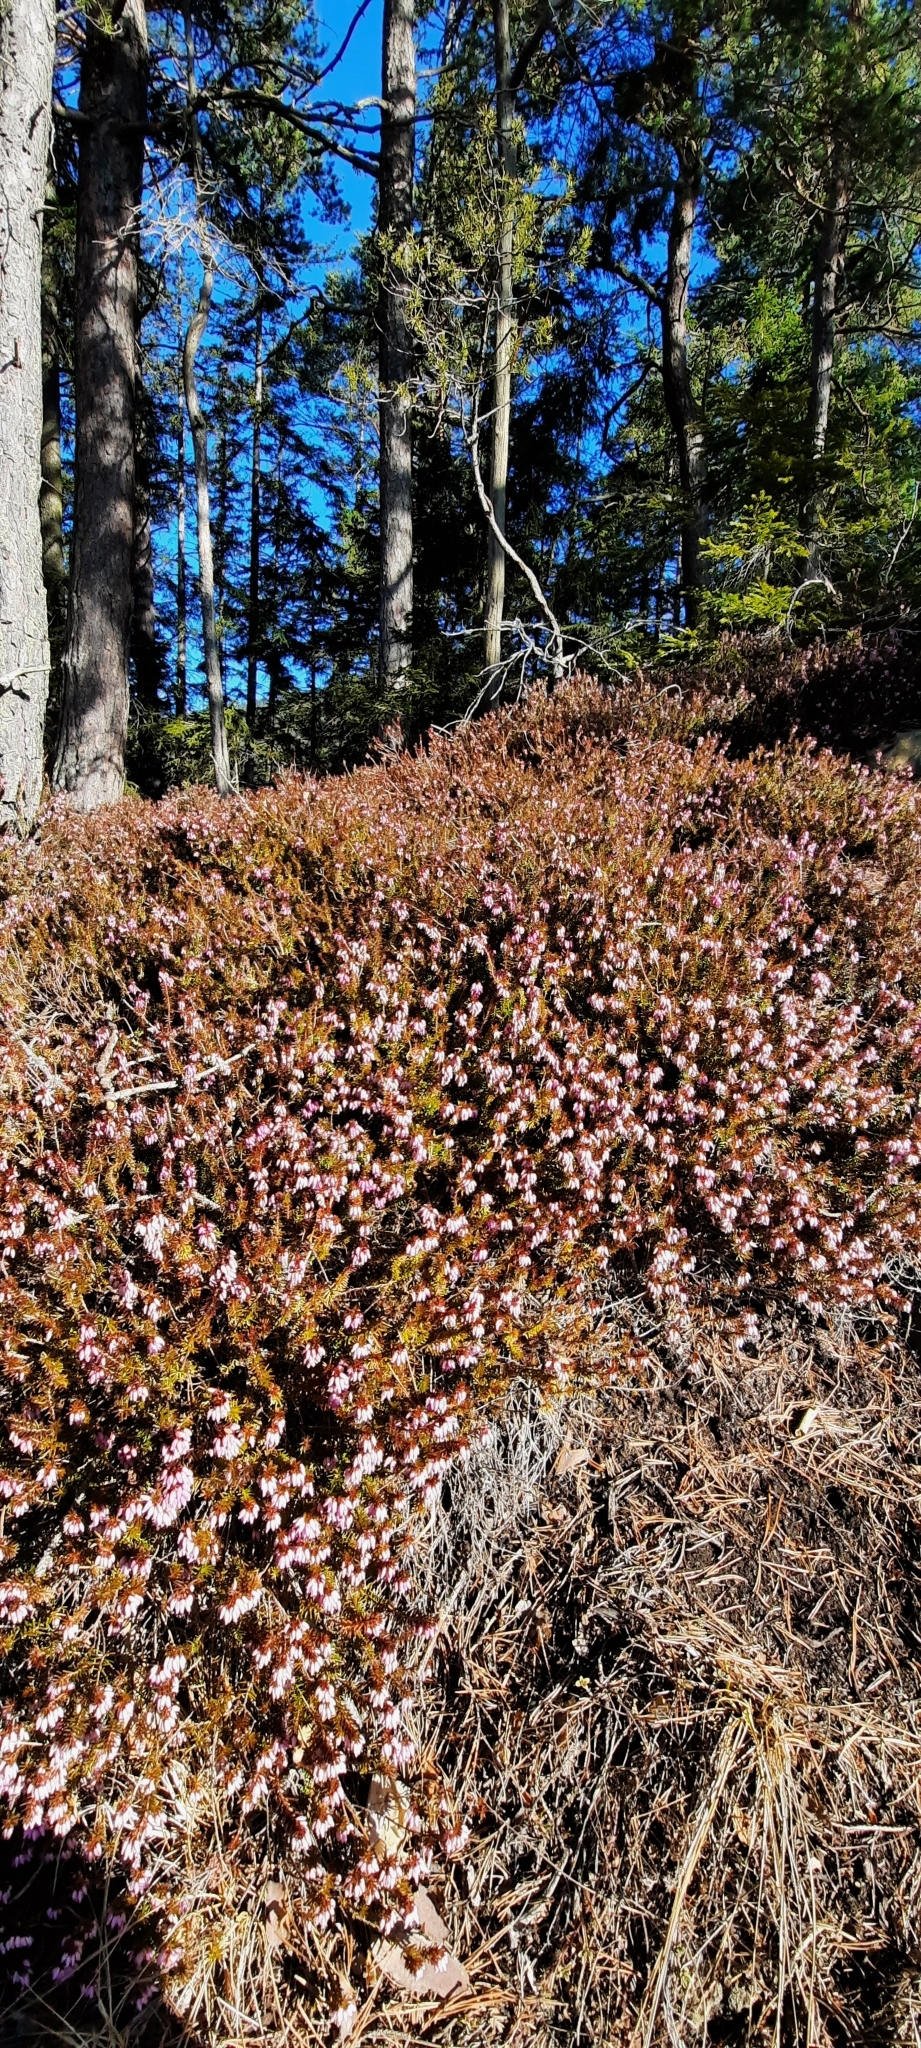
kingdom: Plantae
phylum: Tracheophyta
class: Magnoliopsida
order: Ericales
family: Ericaceae
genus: Calluna
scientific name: Calluna vulgaris
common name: Heather
